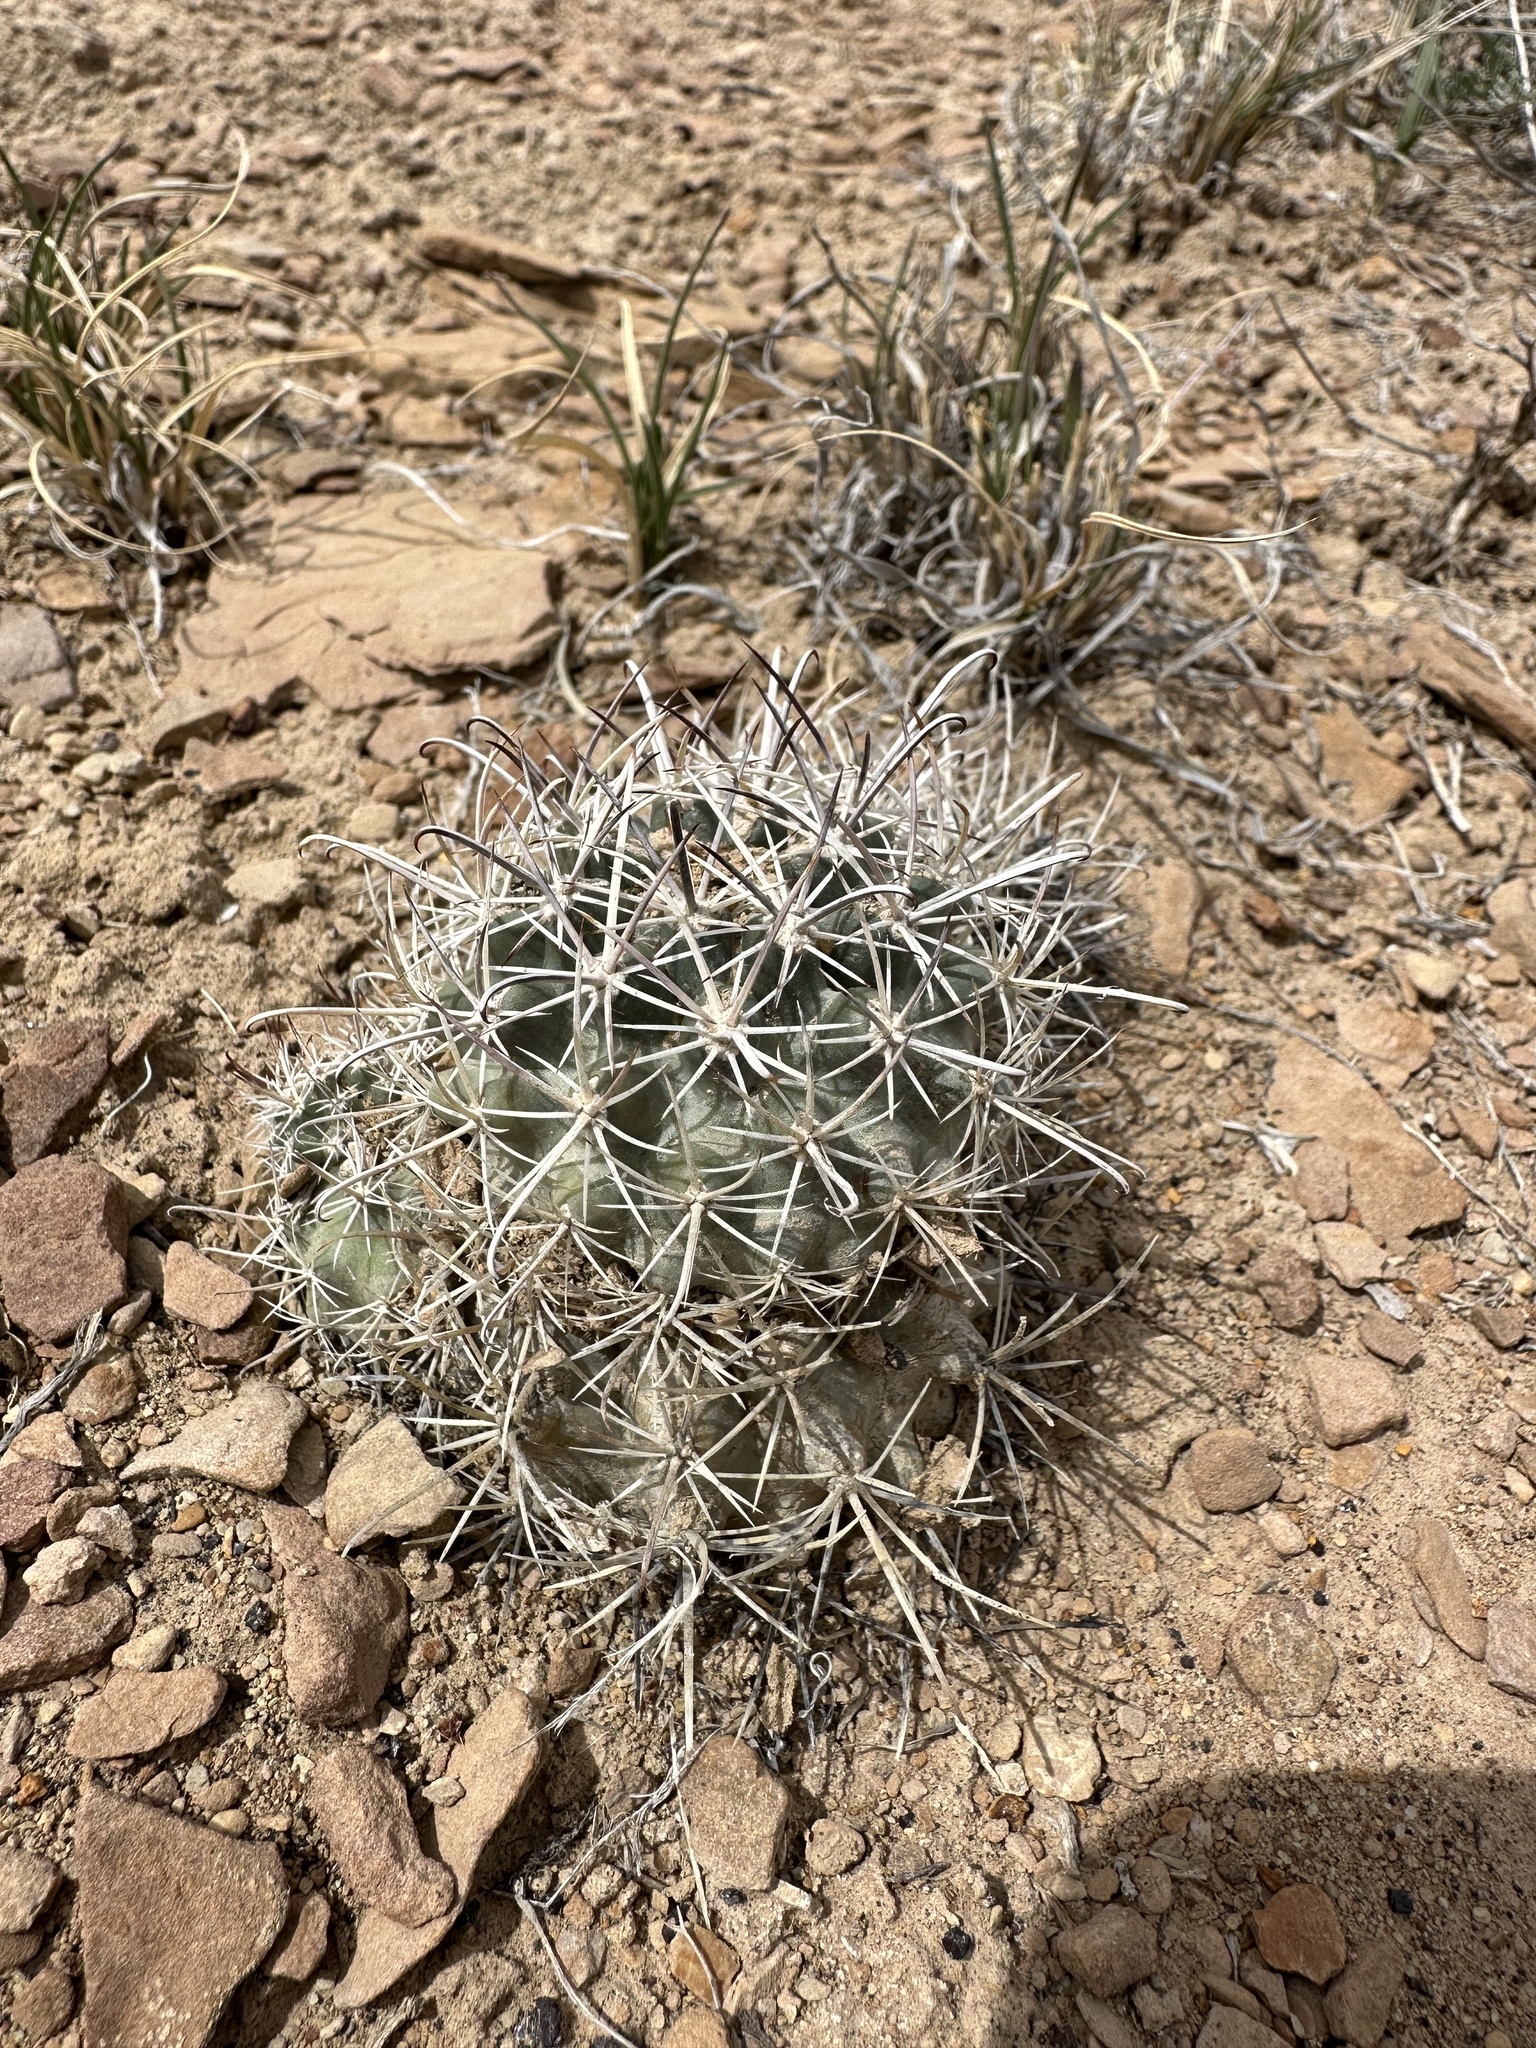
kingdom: Plantae
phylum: Tracheophyta
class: Magnoliopsida
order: Caryophyllales
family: Cactaceae
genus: Sclerocactus
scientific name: Sclerocactus parviflorus
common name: Small-flower fishhook cactus
